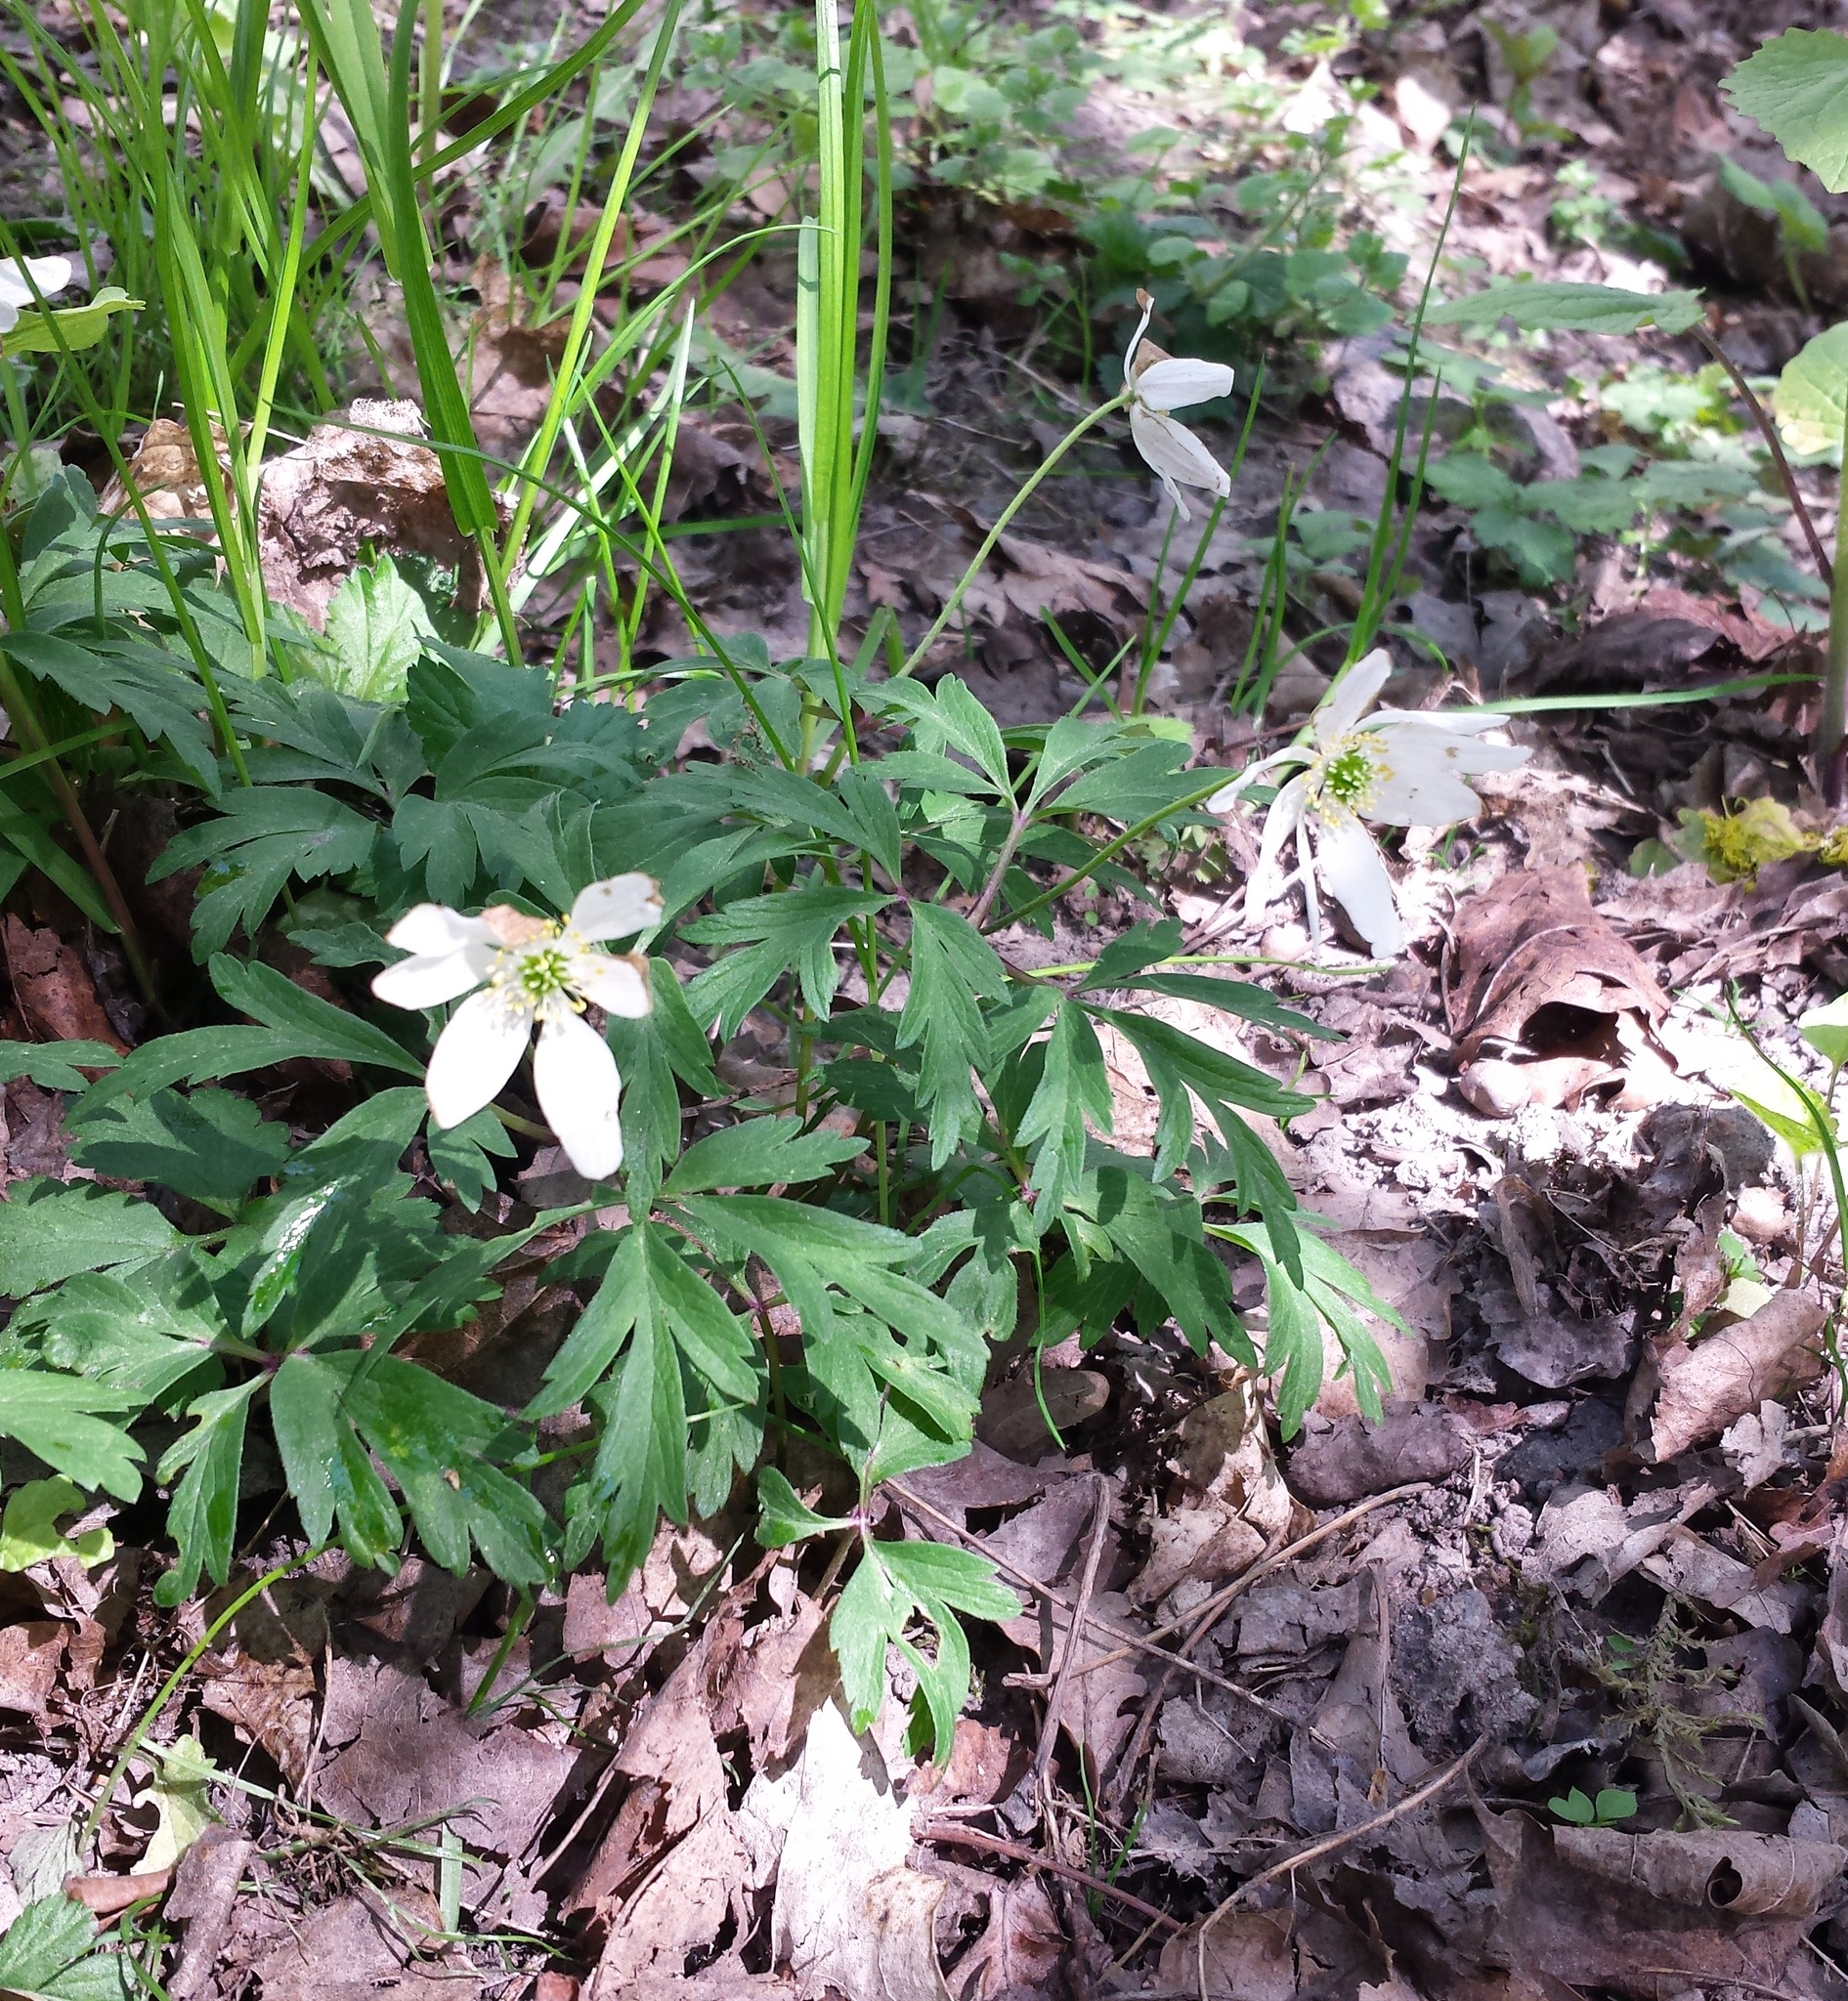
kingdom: Plantae
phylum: Tracheophyta
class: Magnoliopsida
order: Ranunculales
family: Ranunculaceae
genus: Anemone
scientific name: Anemone nemorosa
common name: Wood anemone
